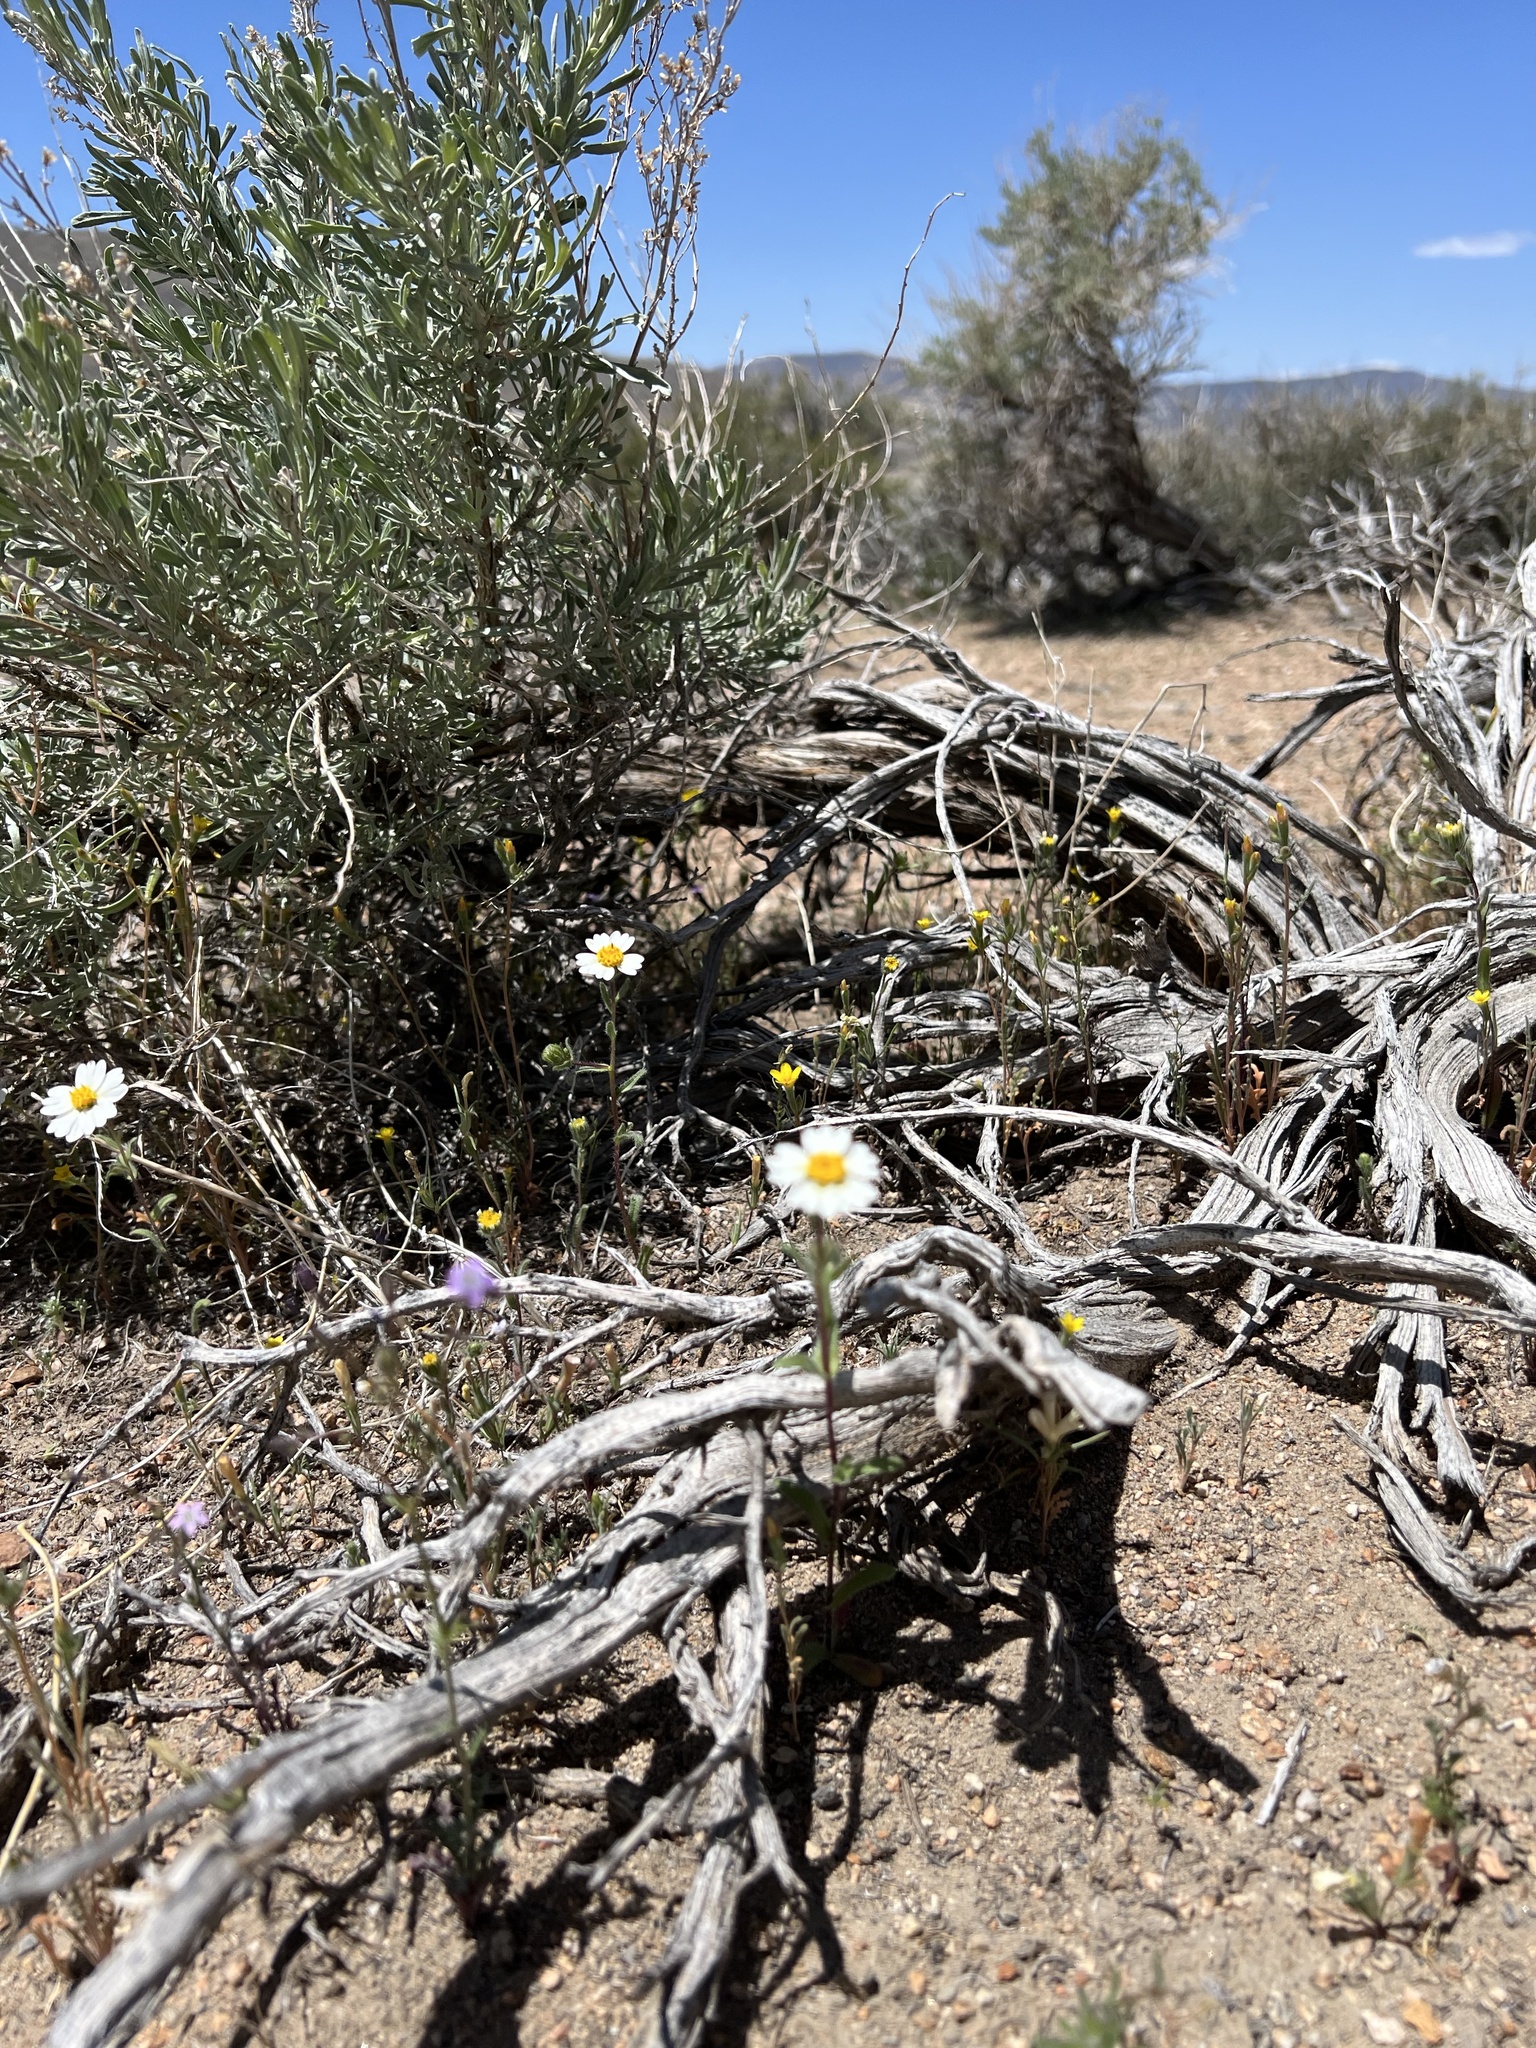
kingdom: Plantae
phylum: Tracheophyta
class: Magnoliopsida
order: Asterales
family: Asteraceae
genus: Layia
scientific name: Layia glandulosa
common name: White layia
